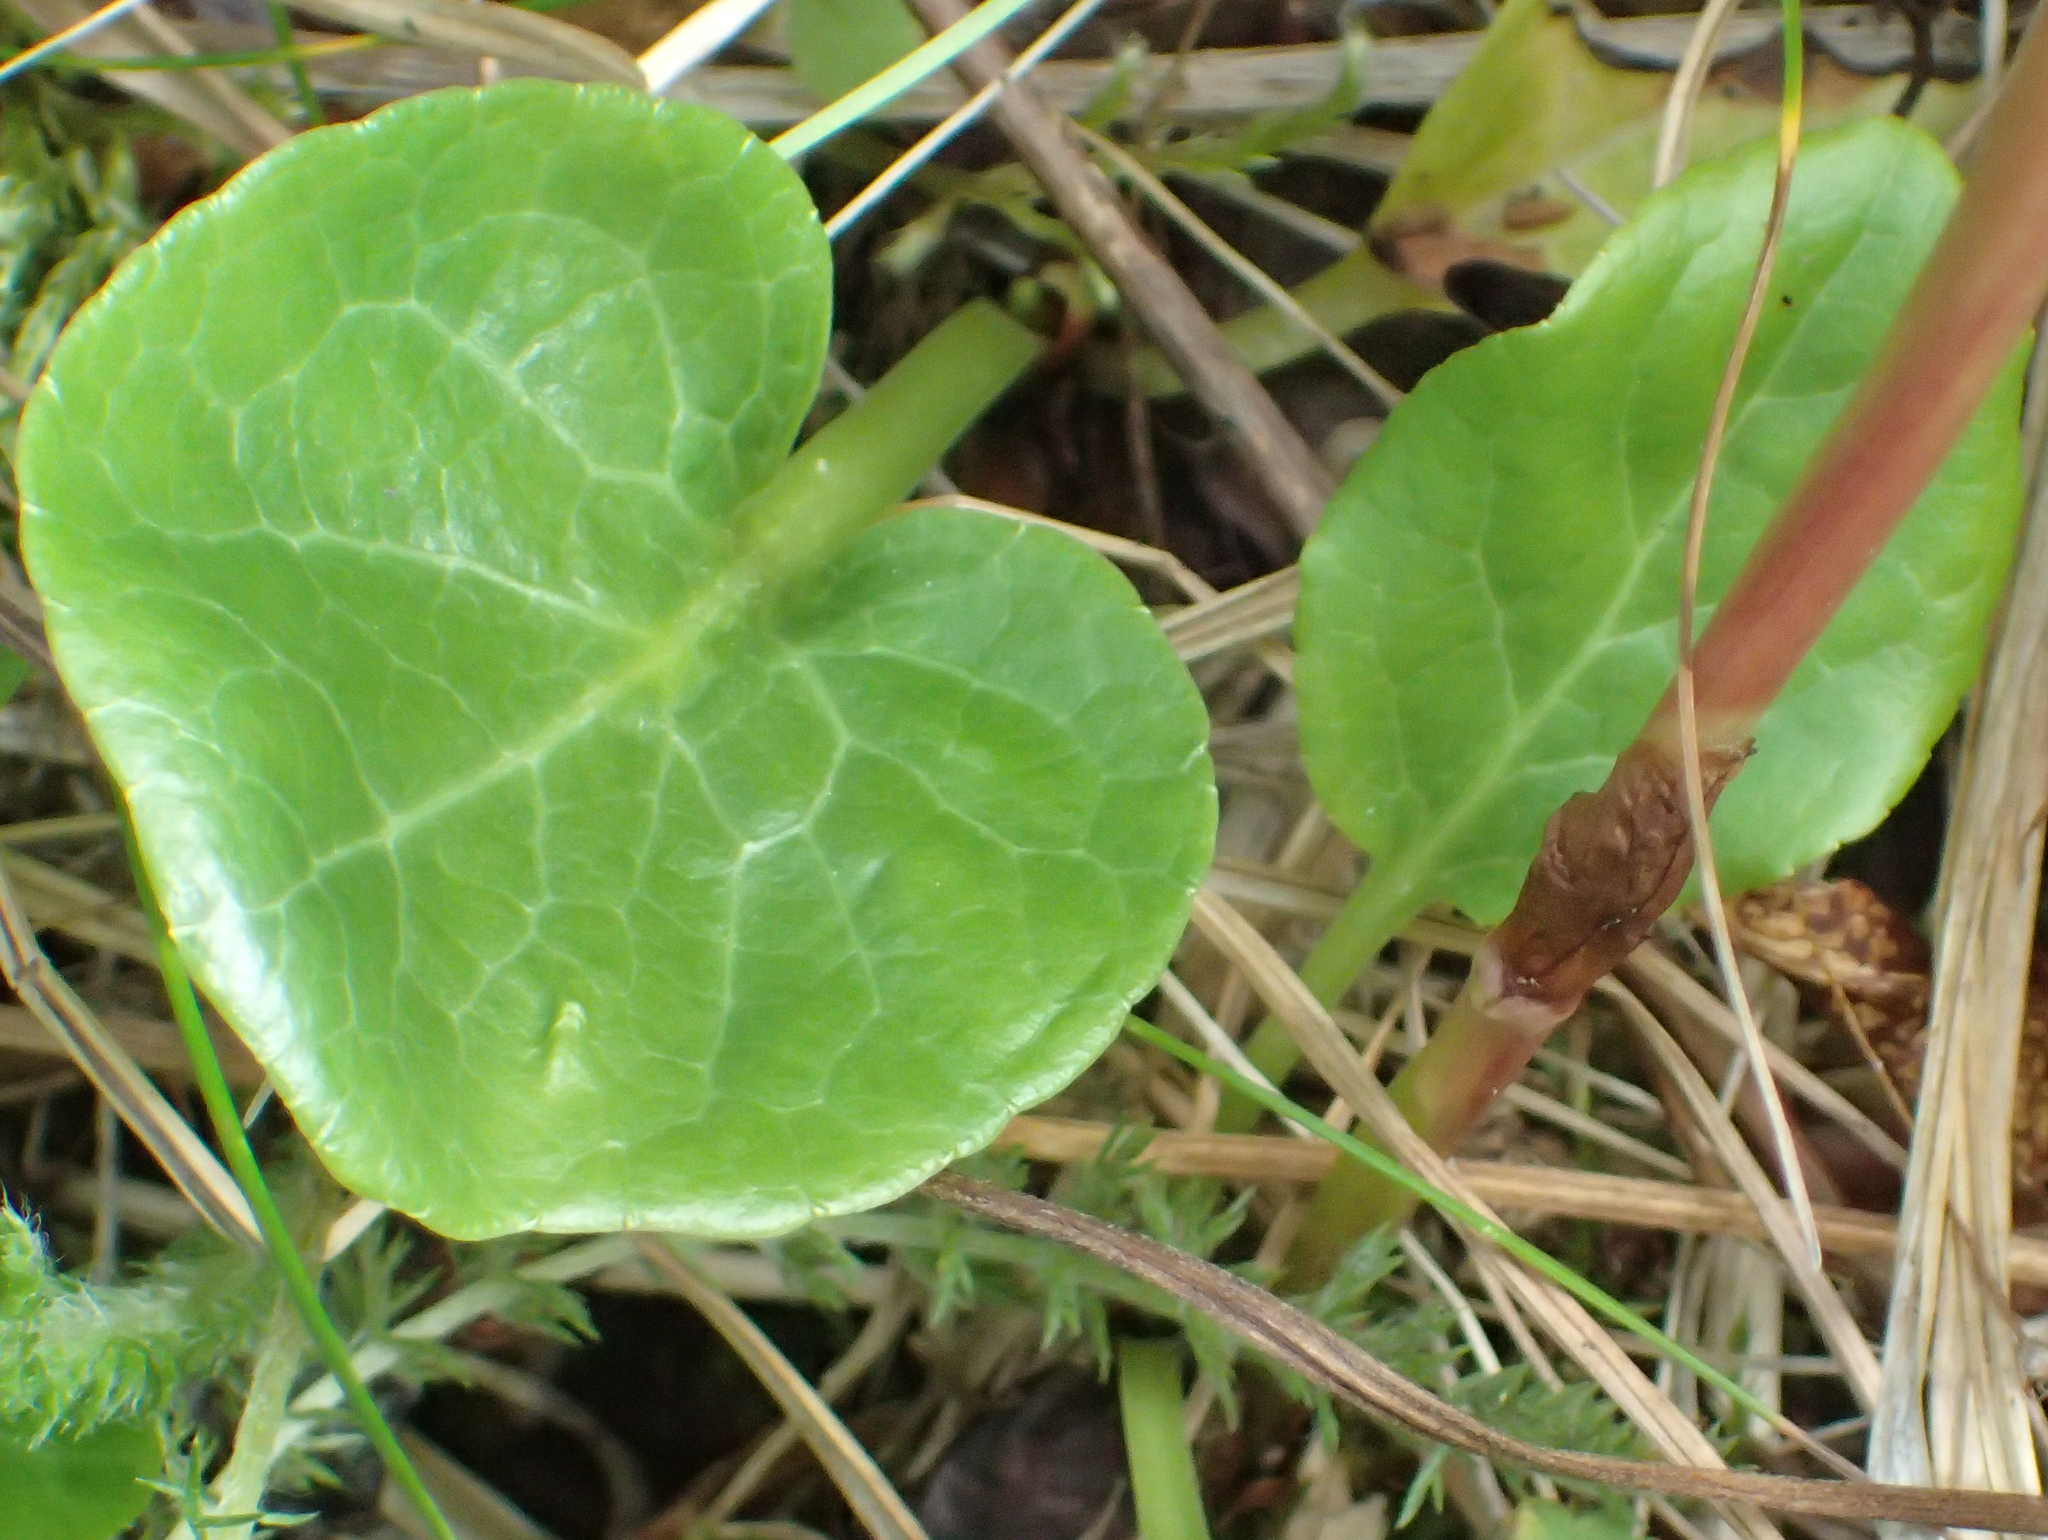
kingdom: Plantae
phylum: Tracheophyta
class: Magnoliopsida
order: Ericales
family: Ericaceae
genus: Pyrola
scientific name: Pyrola asarifolia
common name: Bog wintergreen
